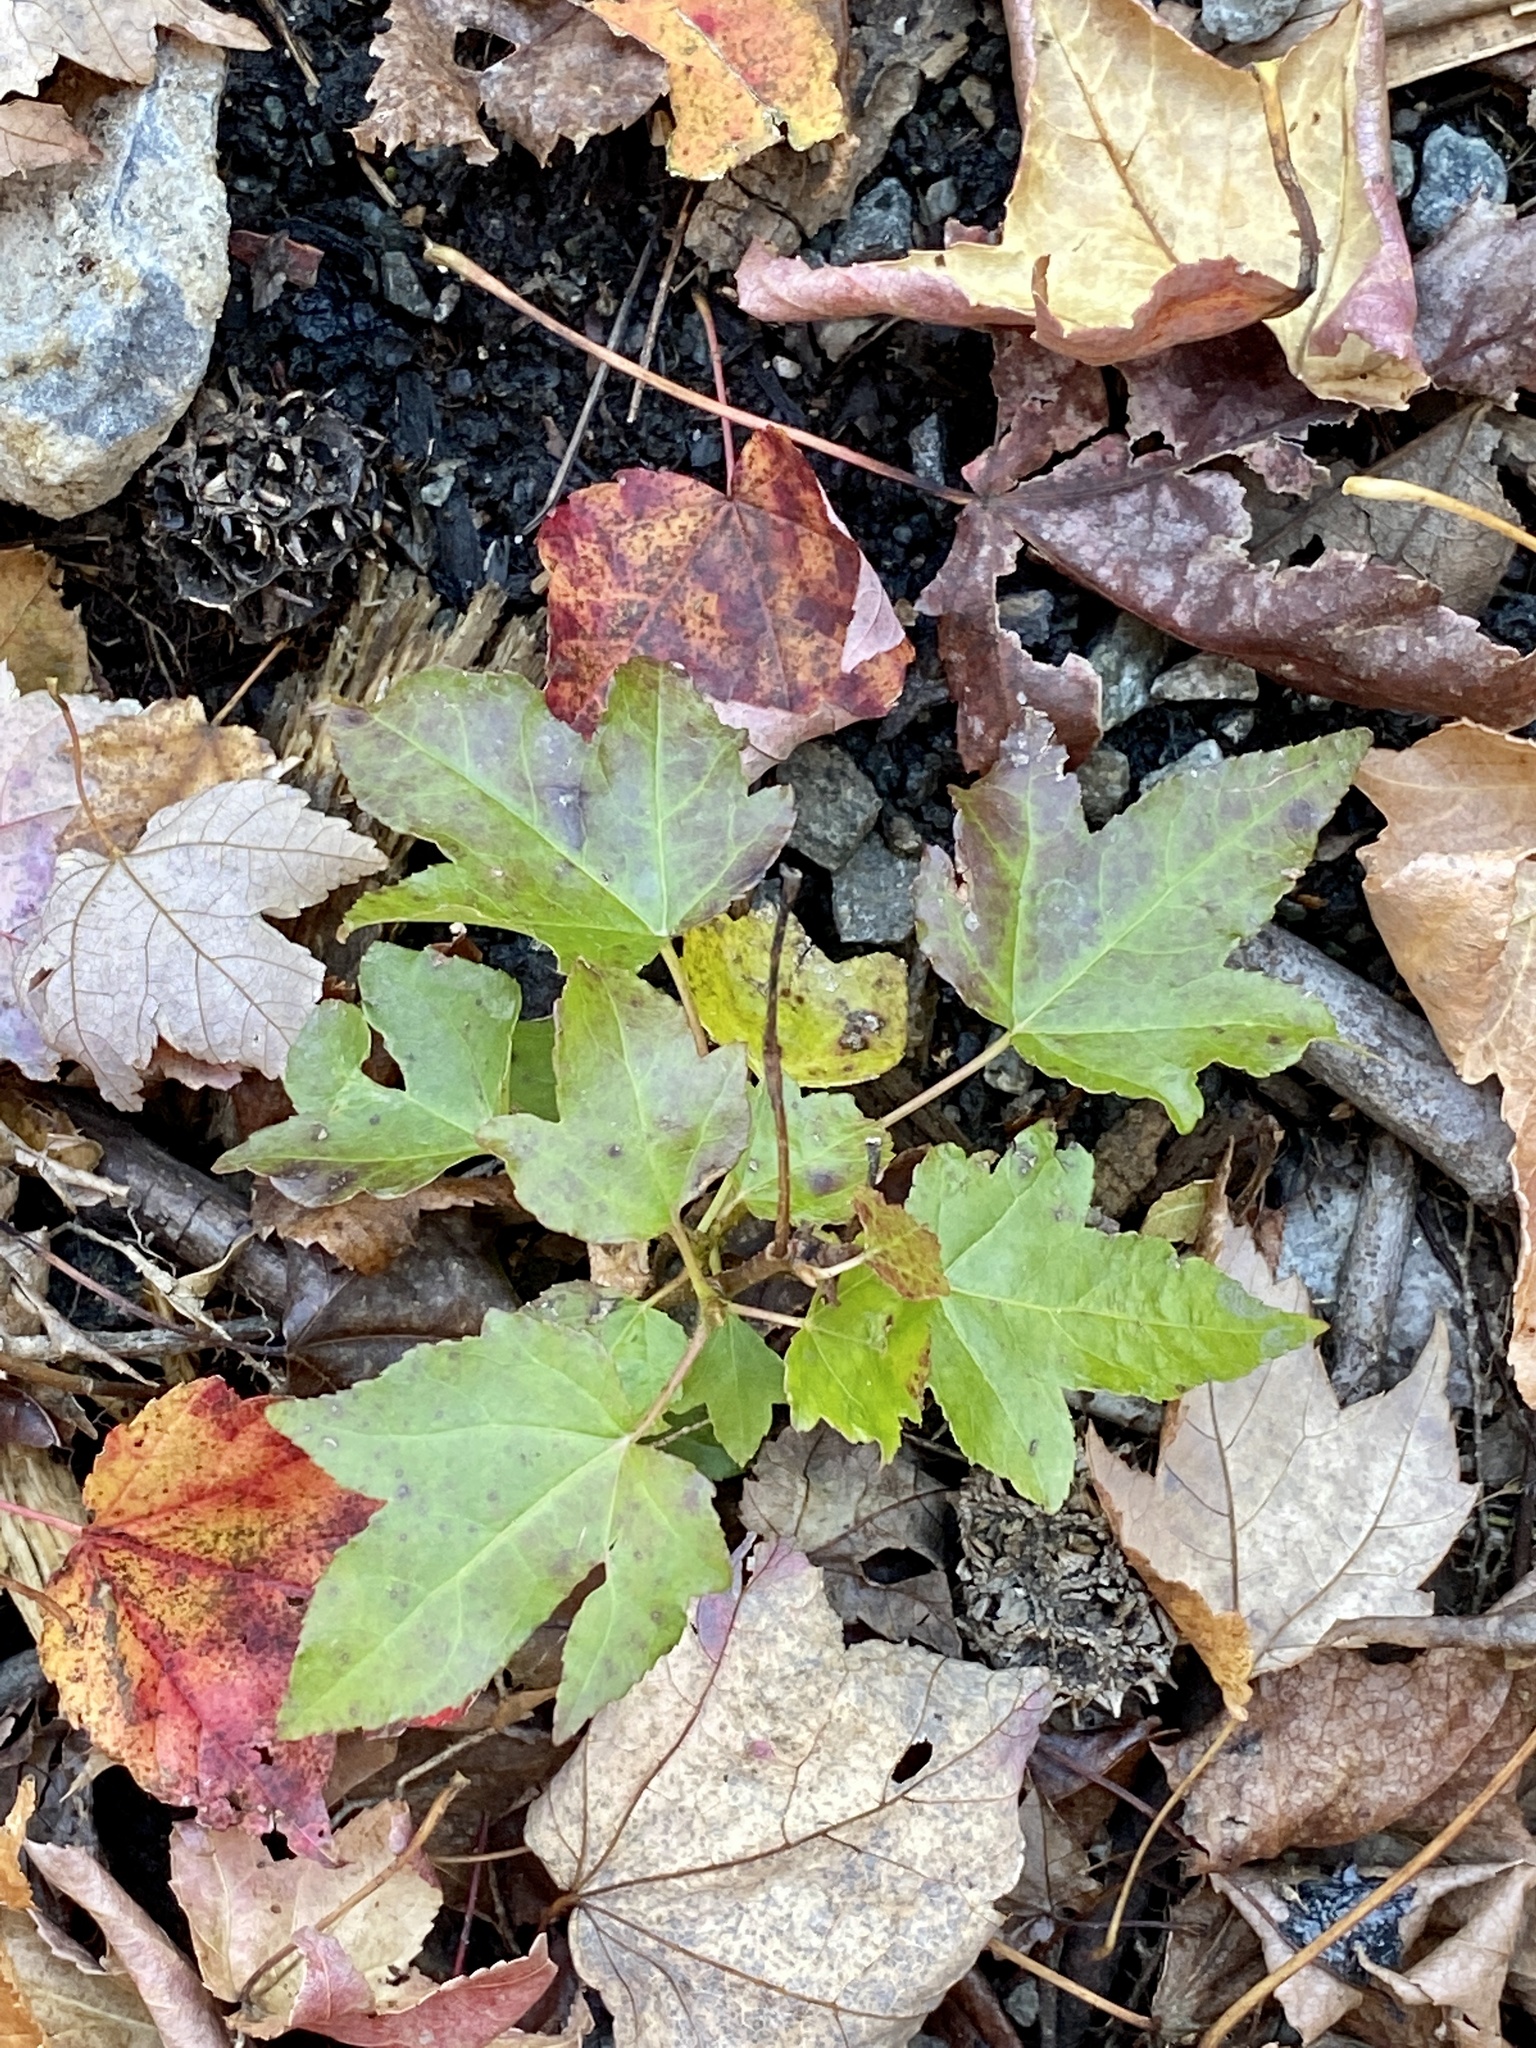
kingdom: Plantae
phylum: Tracheophyta
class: Magnoliopsida
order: Saxifragales
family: Altingiaceae
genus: Liquidambar
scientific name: Liquidambar styraciflua
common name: Sweet gum
